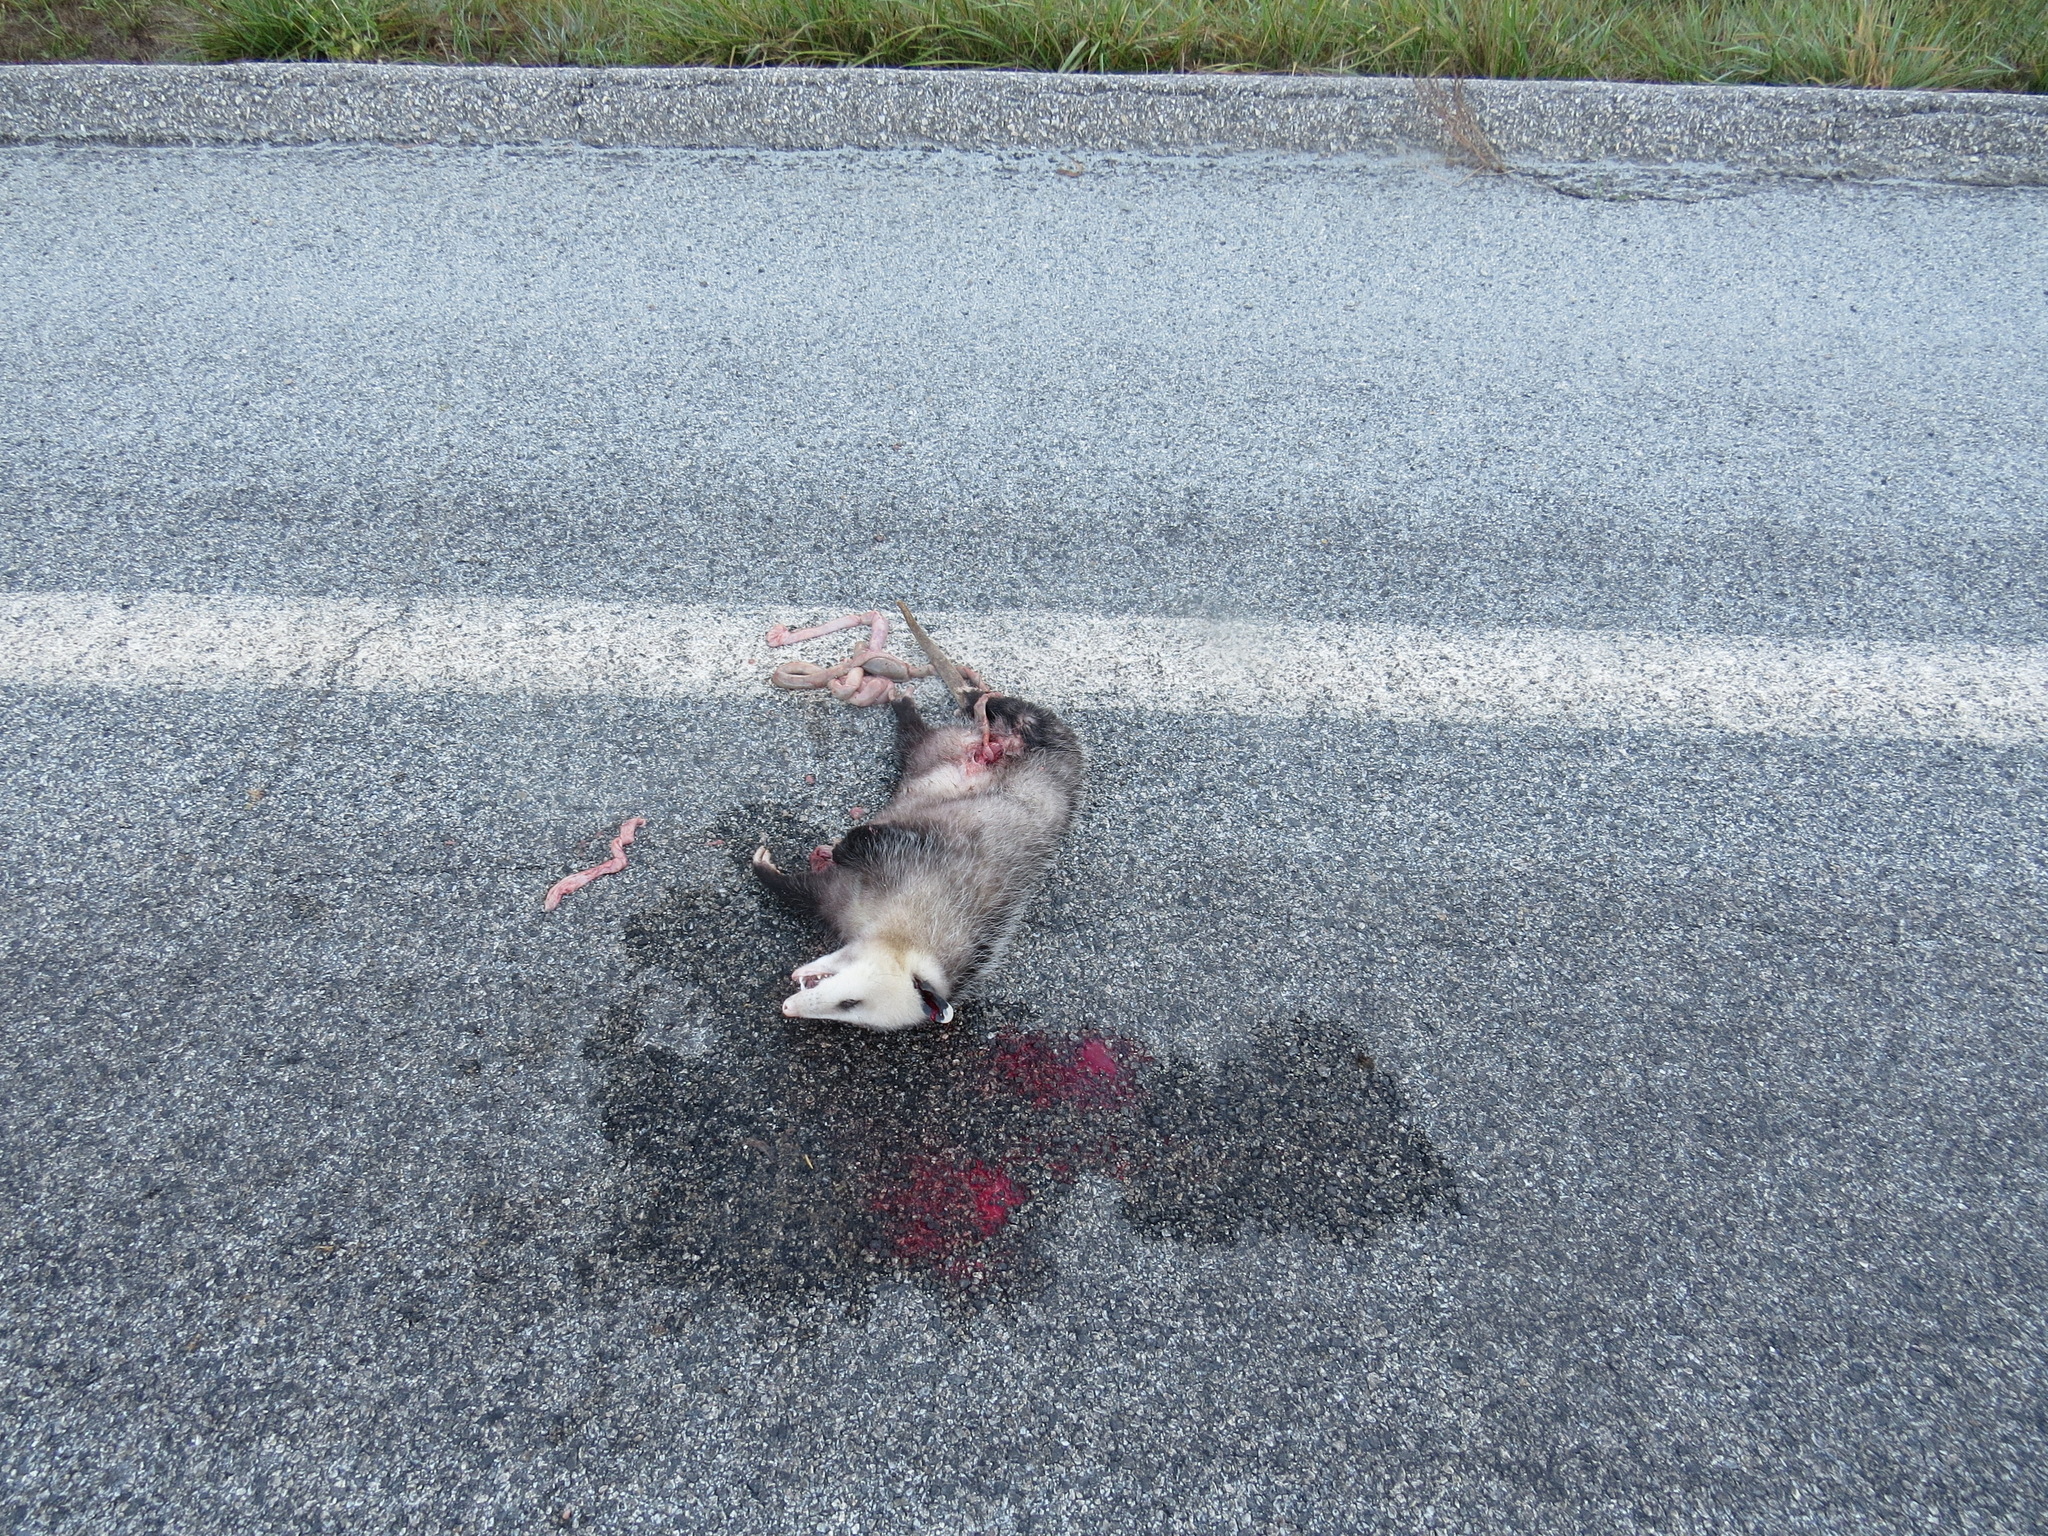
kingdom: Animalia
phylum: Chordata
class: Mammalia
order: Didelphimorphia
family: Didelphidae
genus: Didelphis
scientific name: Didelphis virginiana
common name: Virginia opossum
